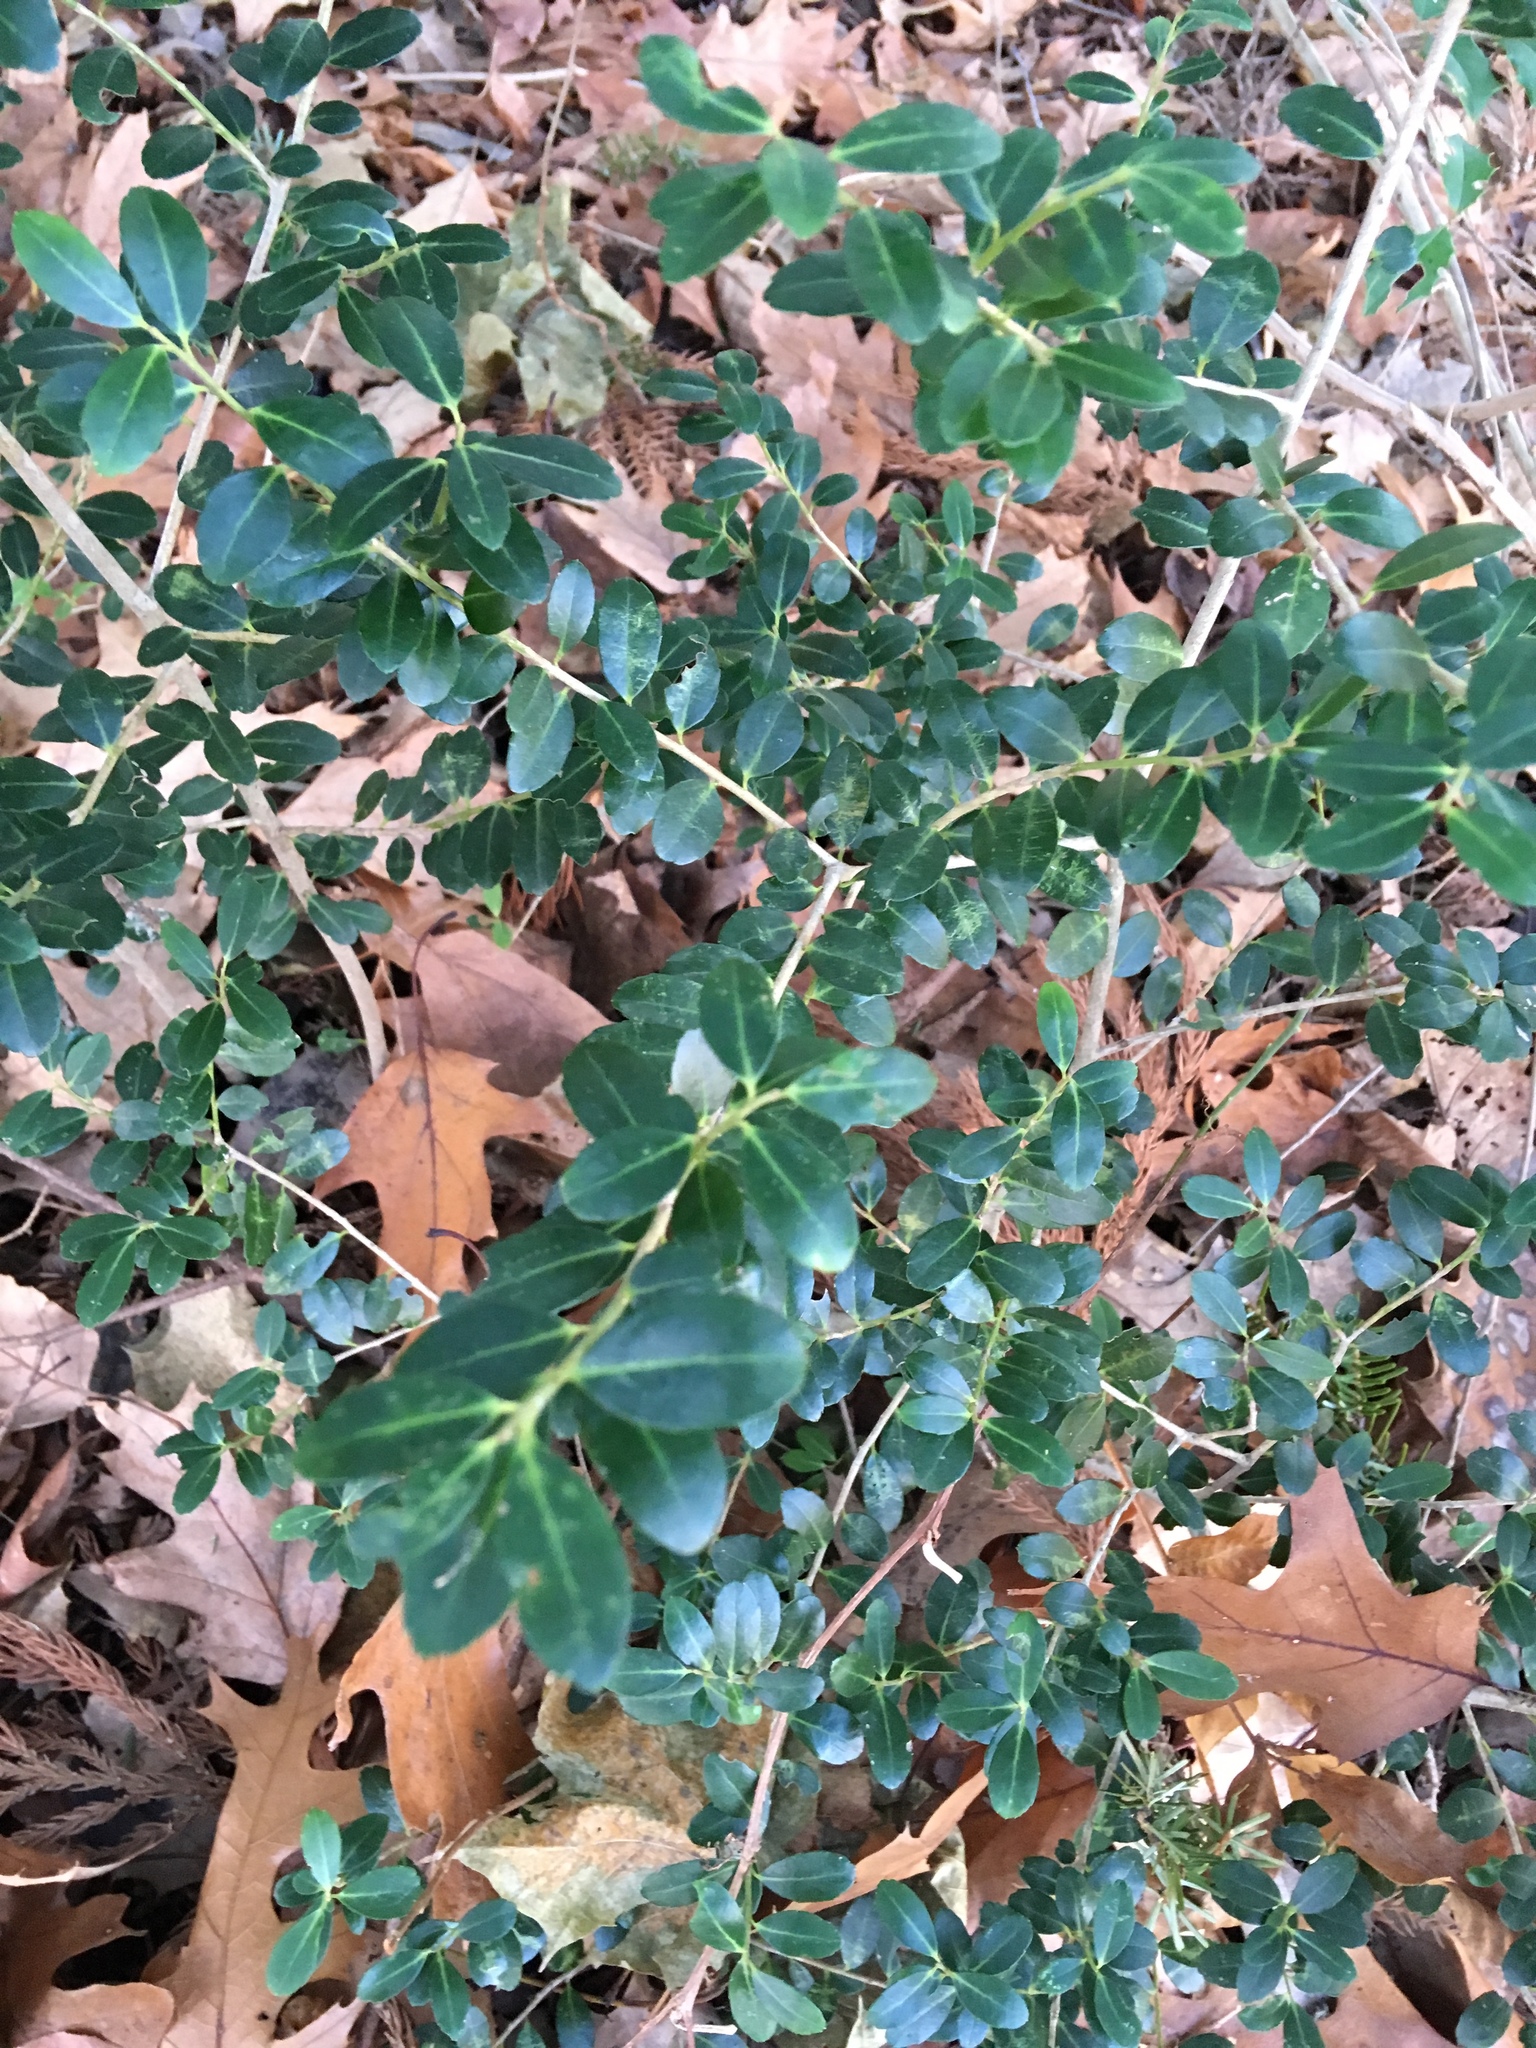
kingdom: Plantae
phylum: Tracheophyta
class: Magnoliopsida
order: Aquifoliales
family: Aquifoliaceae
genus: Ilex
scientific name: Ilex crenata
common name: Japanese holly
